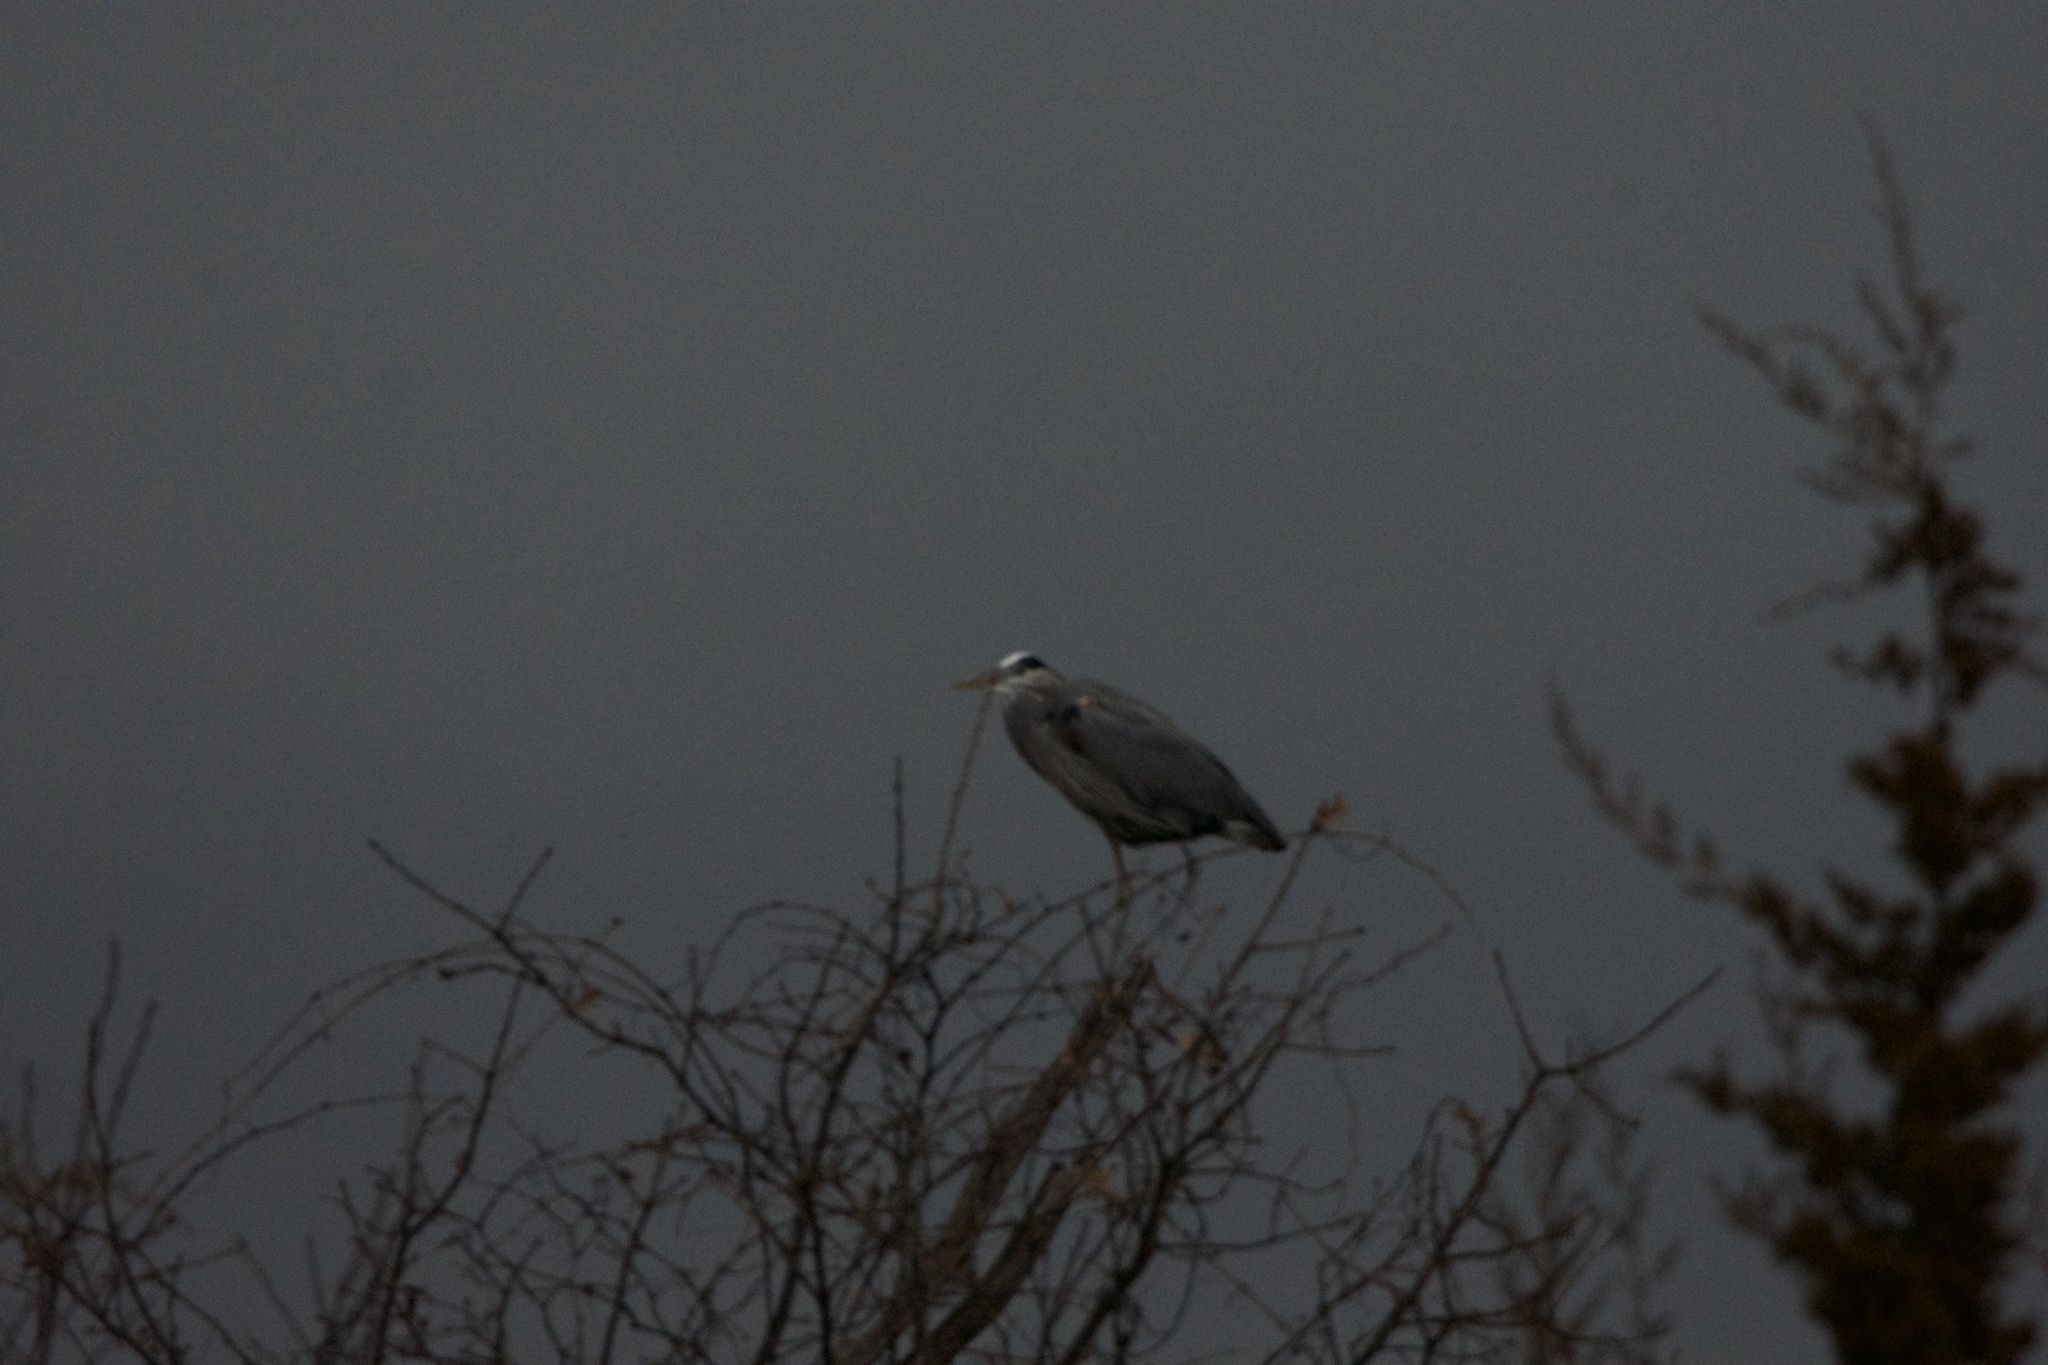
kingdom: Animalia
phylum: Chordata
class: Aves
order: Pelecaniformes
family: Ardeidae
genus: Ardea
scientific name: Ardea herodias
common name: Great blue heron
